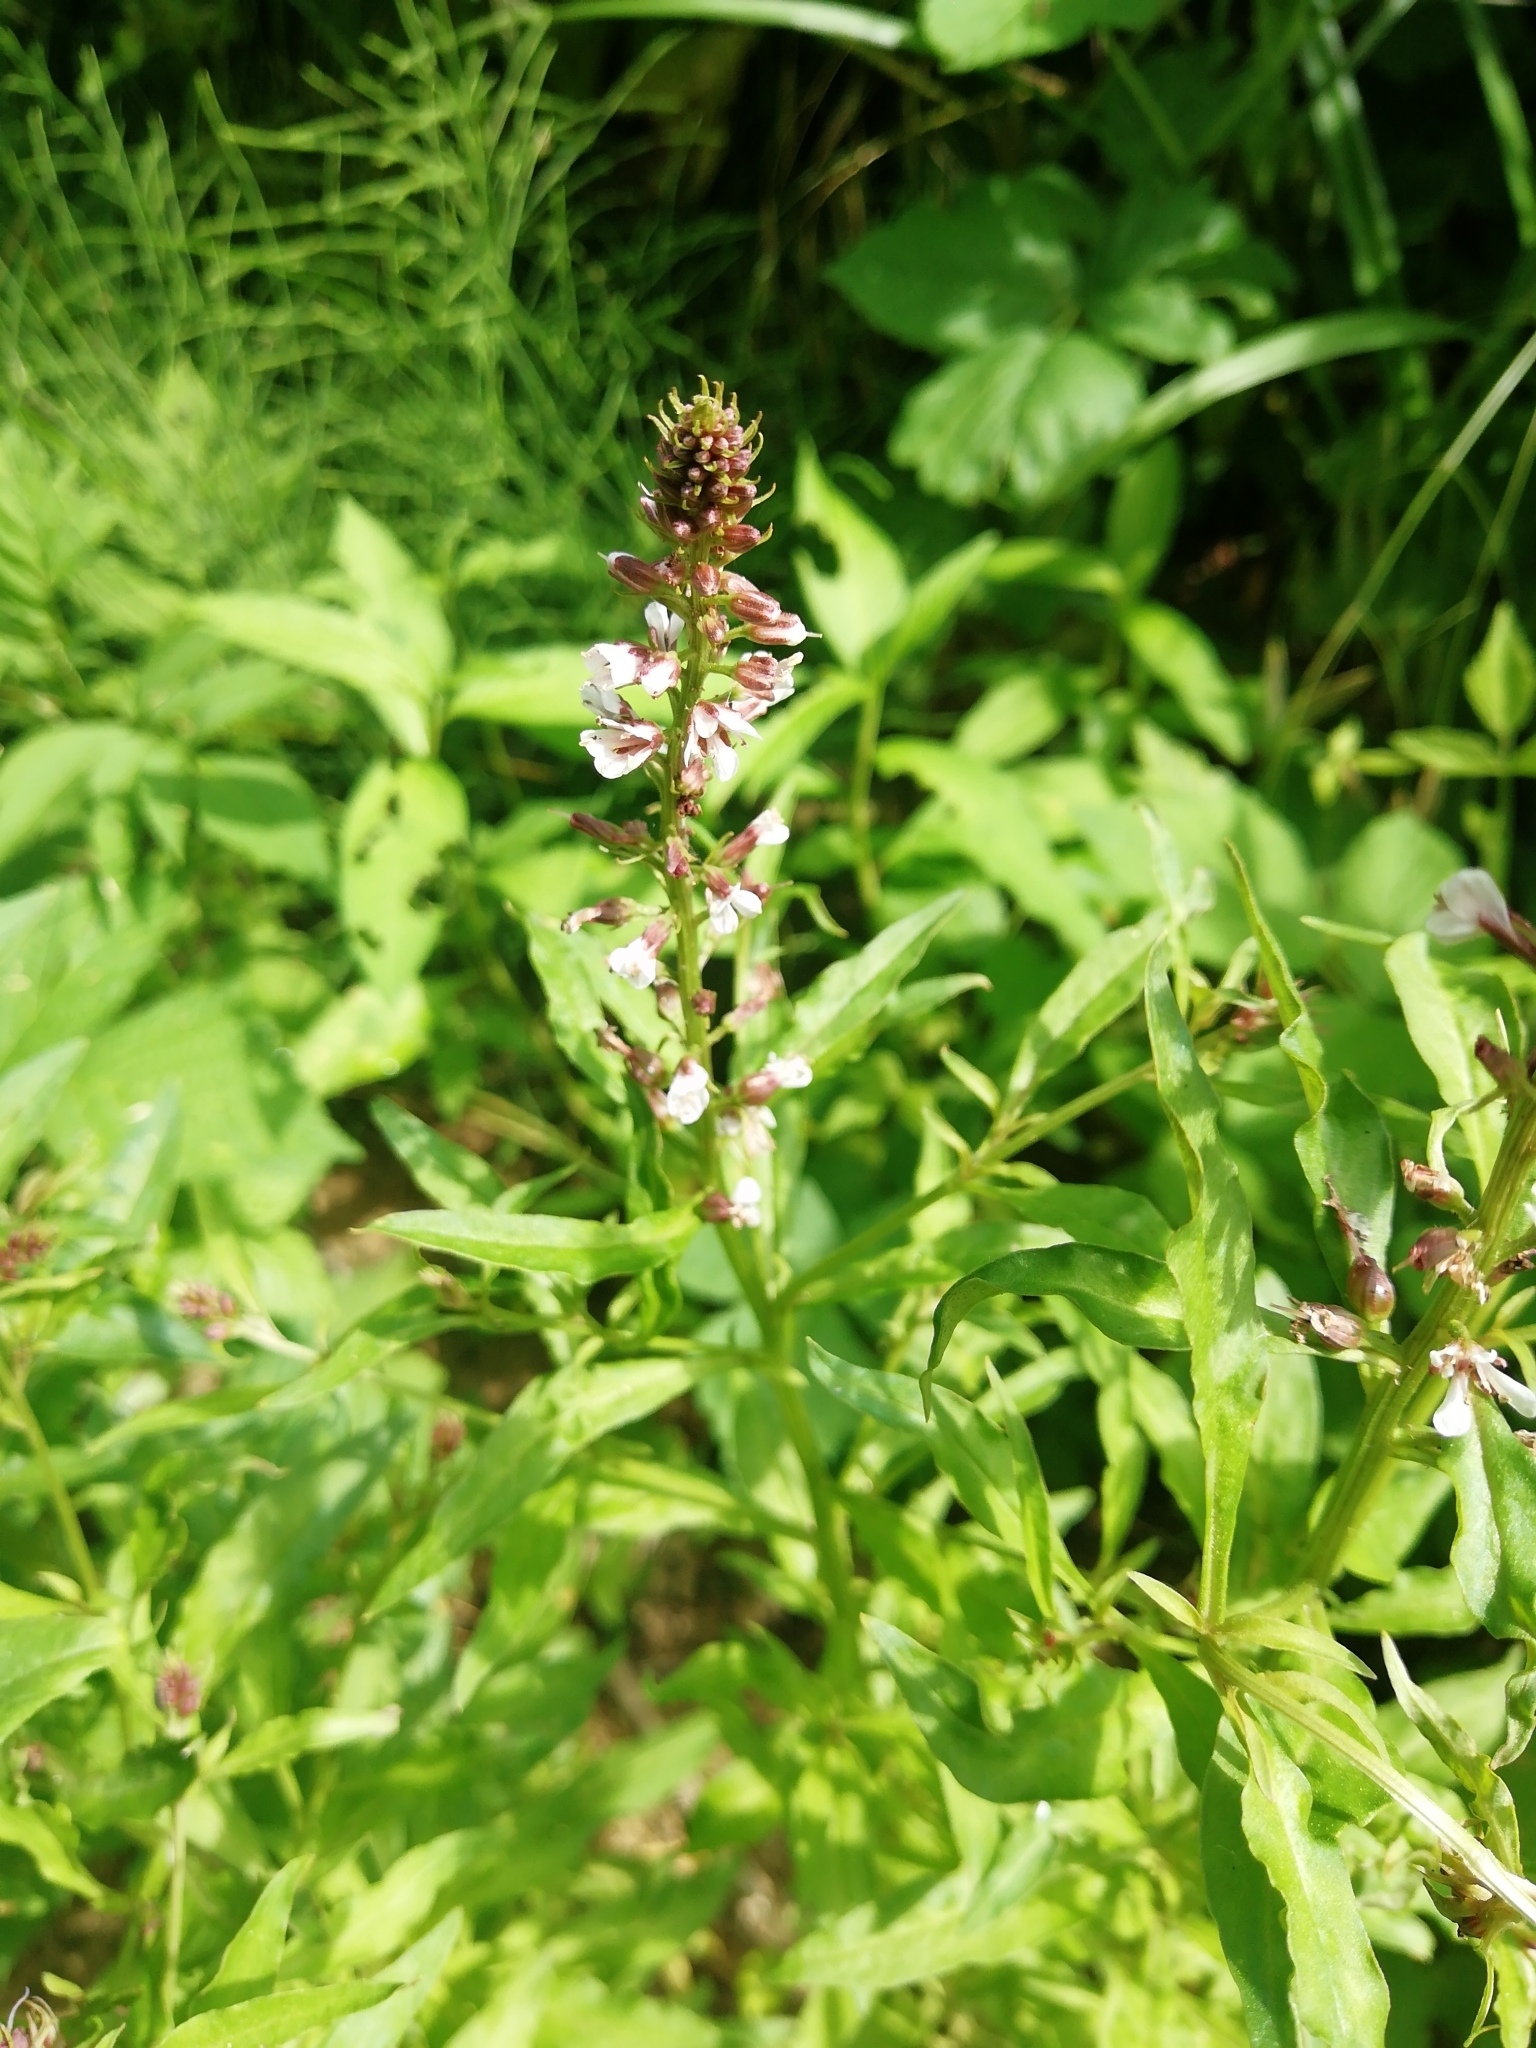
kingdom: Plantae
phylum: Tracheophyta
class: Magnoliopsida
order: Ericales
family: Primulaceae
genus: Lysimachia
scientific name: Lysimachia dubia
